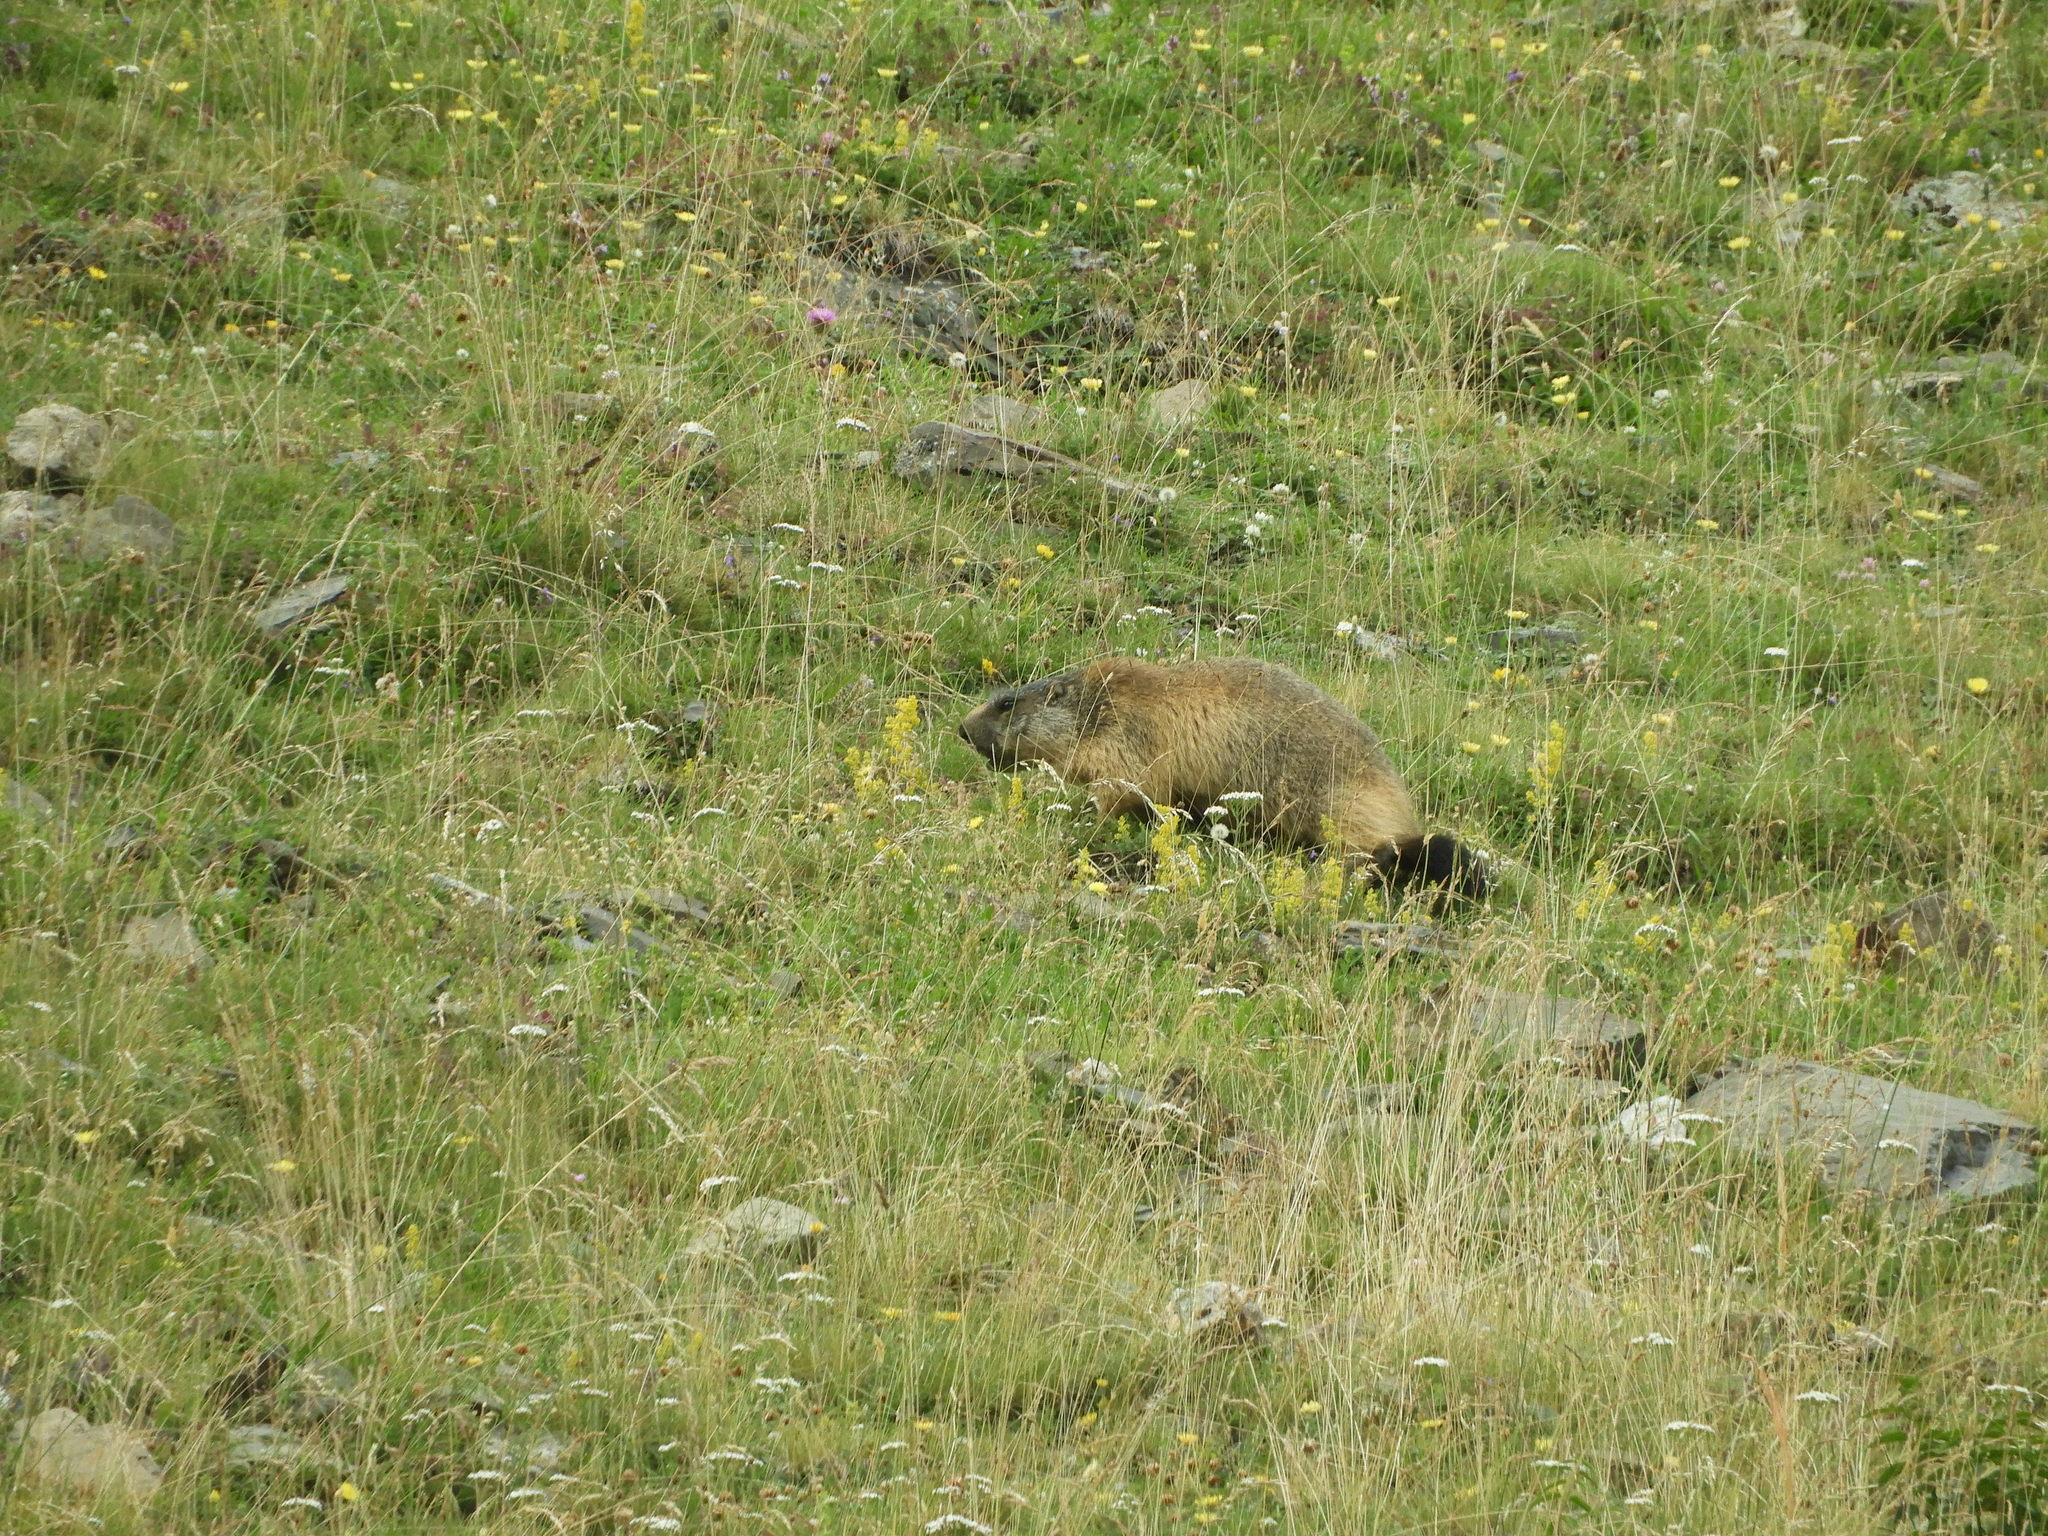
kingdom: Animalia
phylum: Chordata
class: Mammalia
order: Rodentia
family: Sciuridae
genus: Marmota
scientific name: Marmota marmota
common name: Alpine marmot
